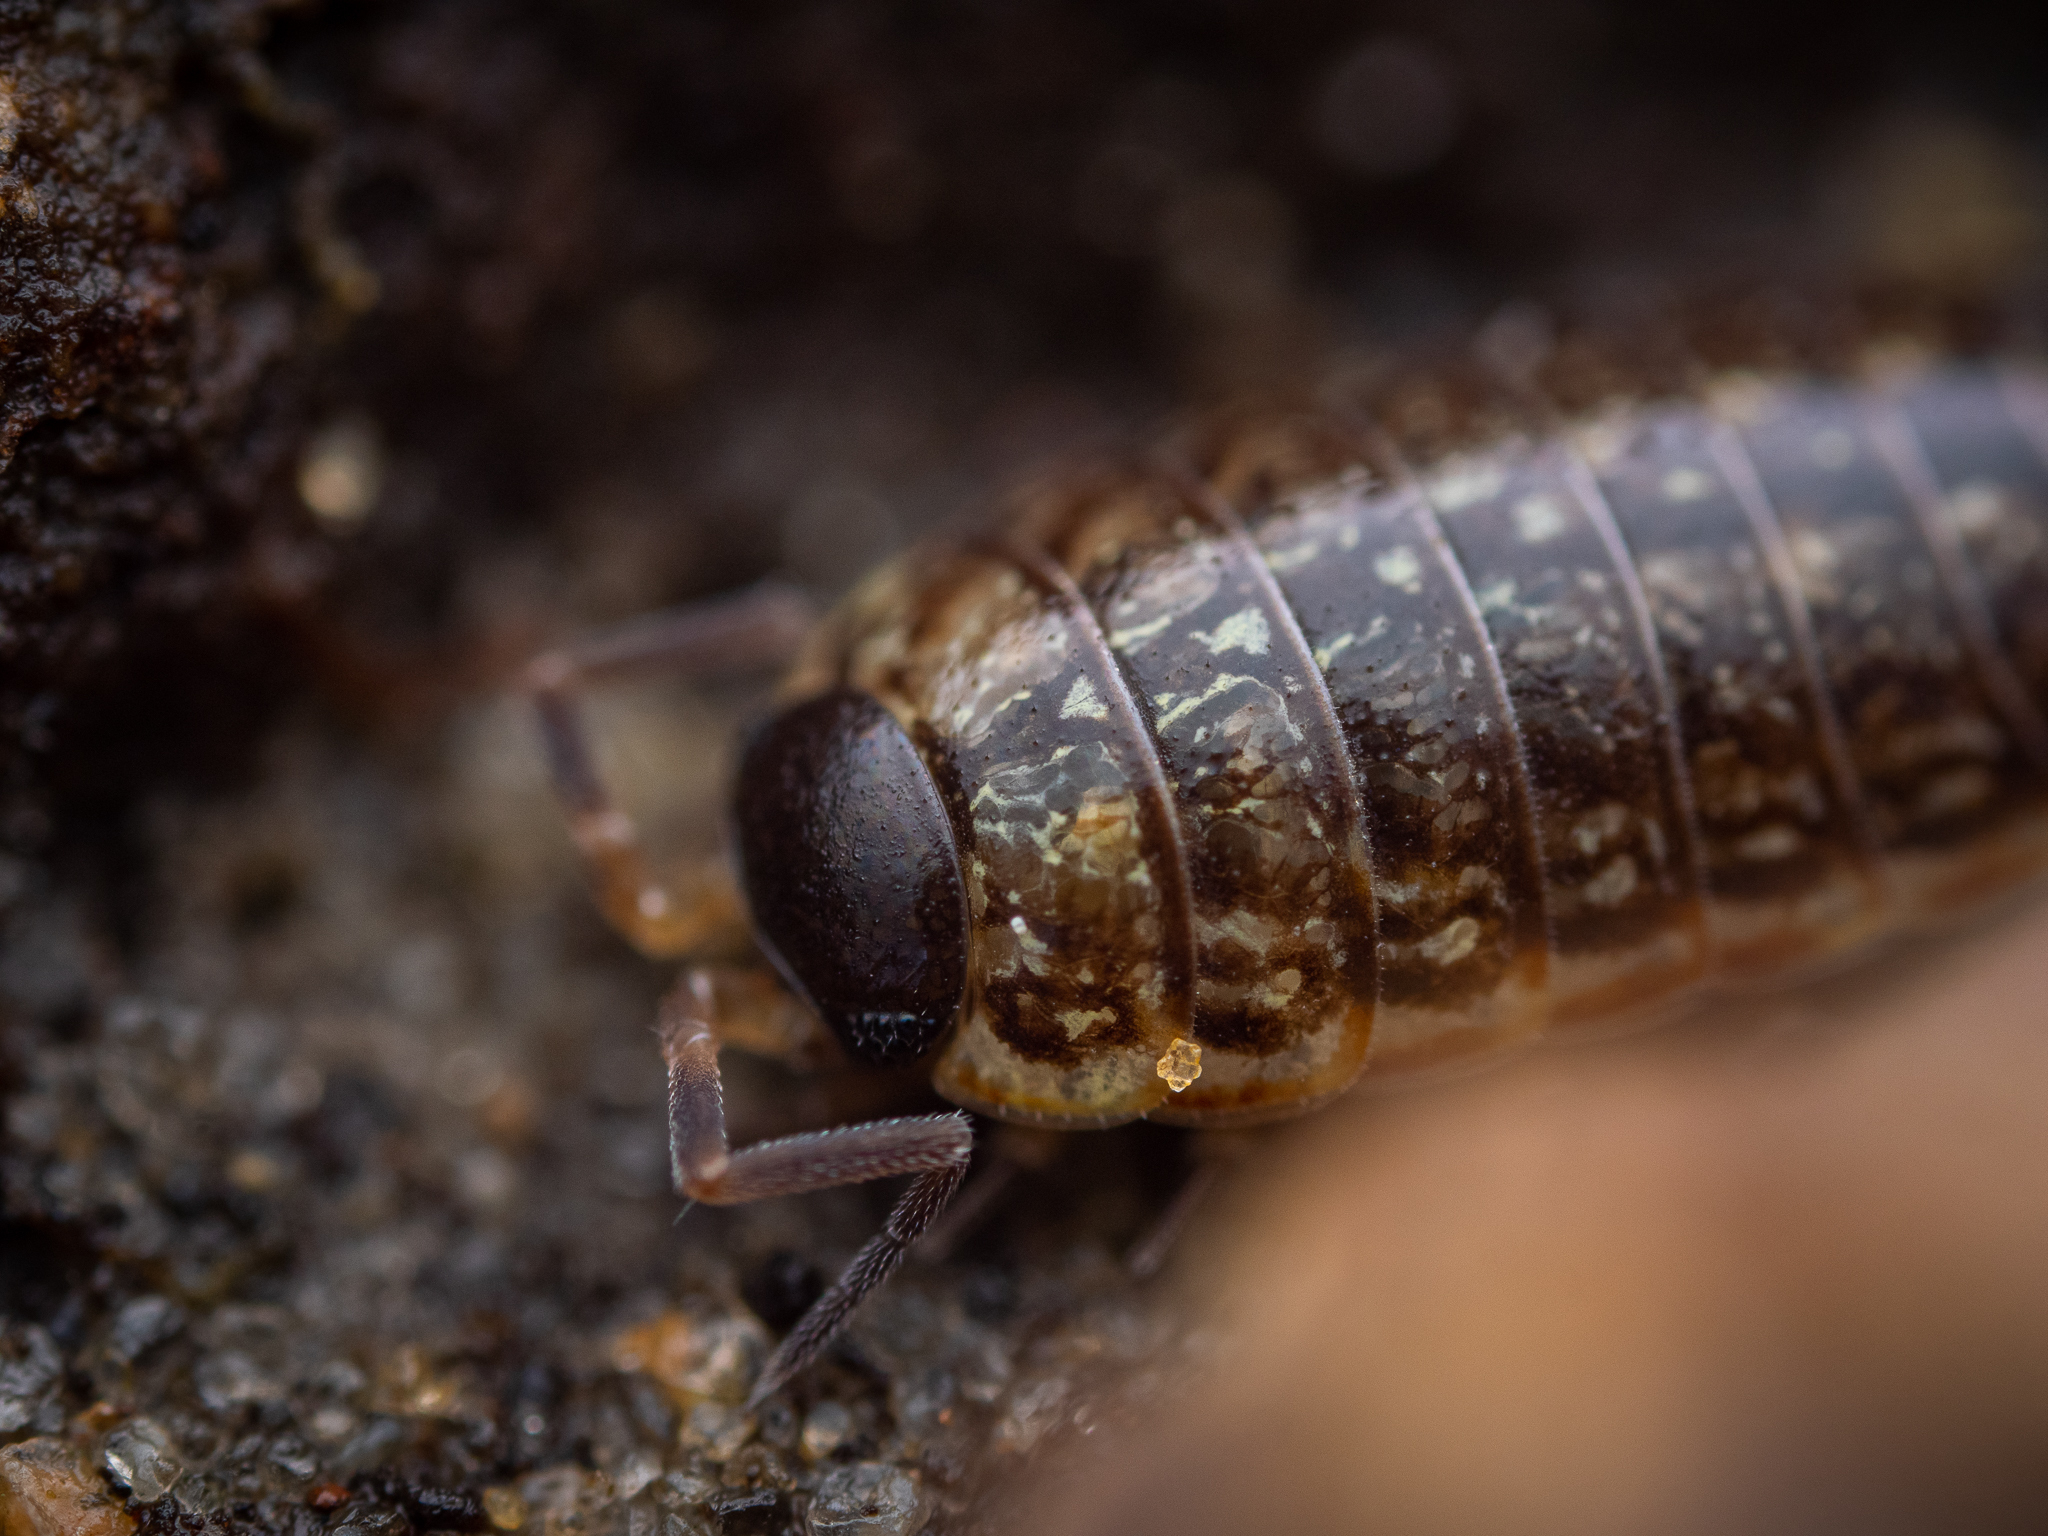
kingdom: Animalia
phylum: Arthropoda
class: Malacostraca
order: Isopoda
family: Philosciidae
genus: Philoscia
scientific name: Philoscia muscorum
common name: Common striped woodlouse
